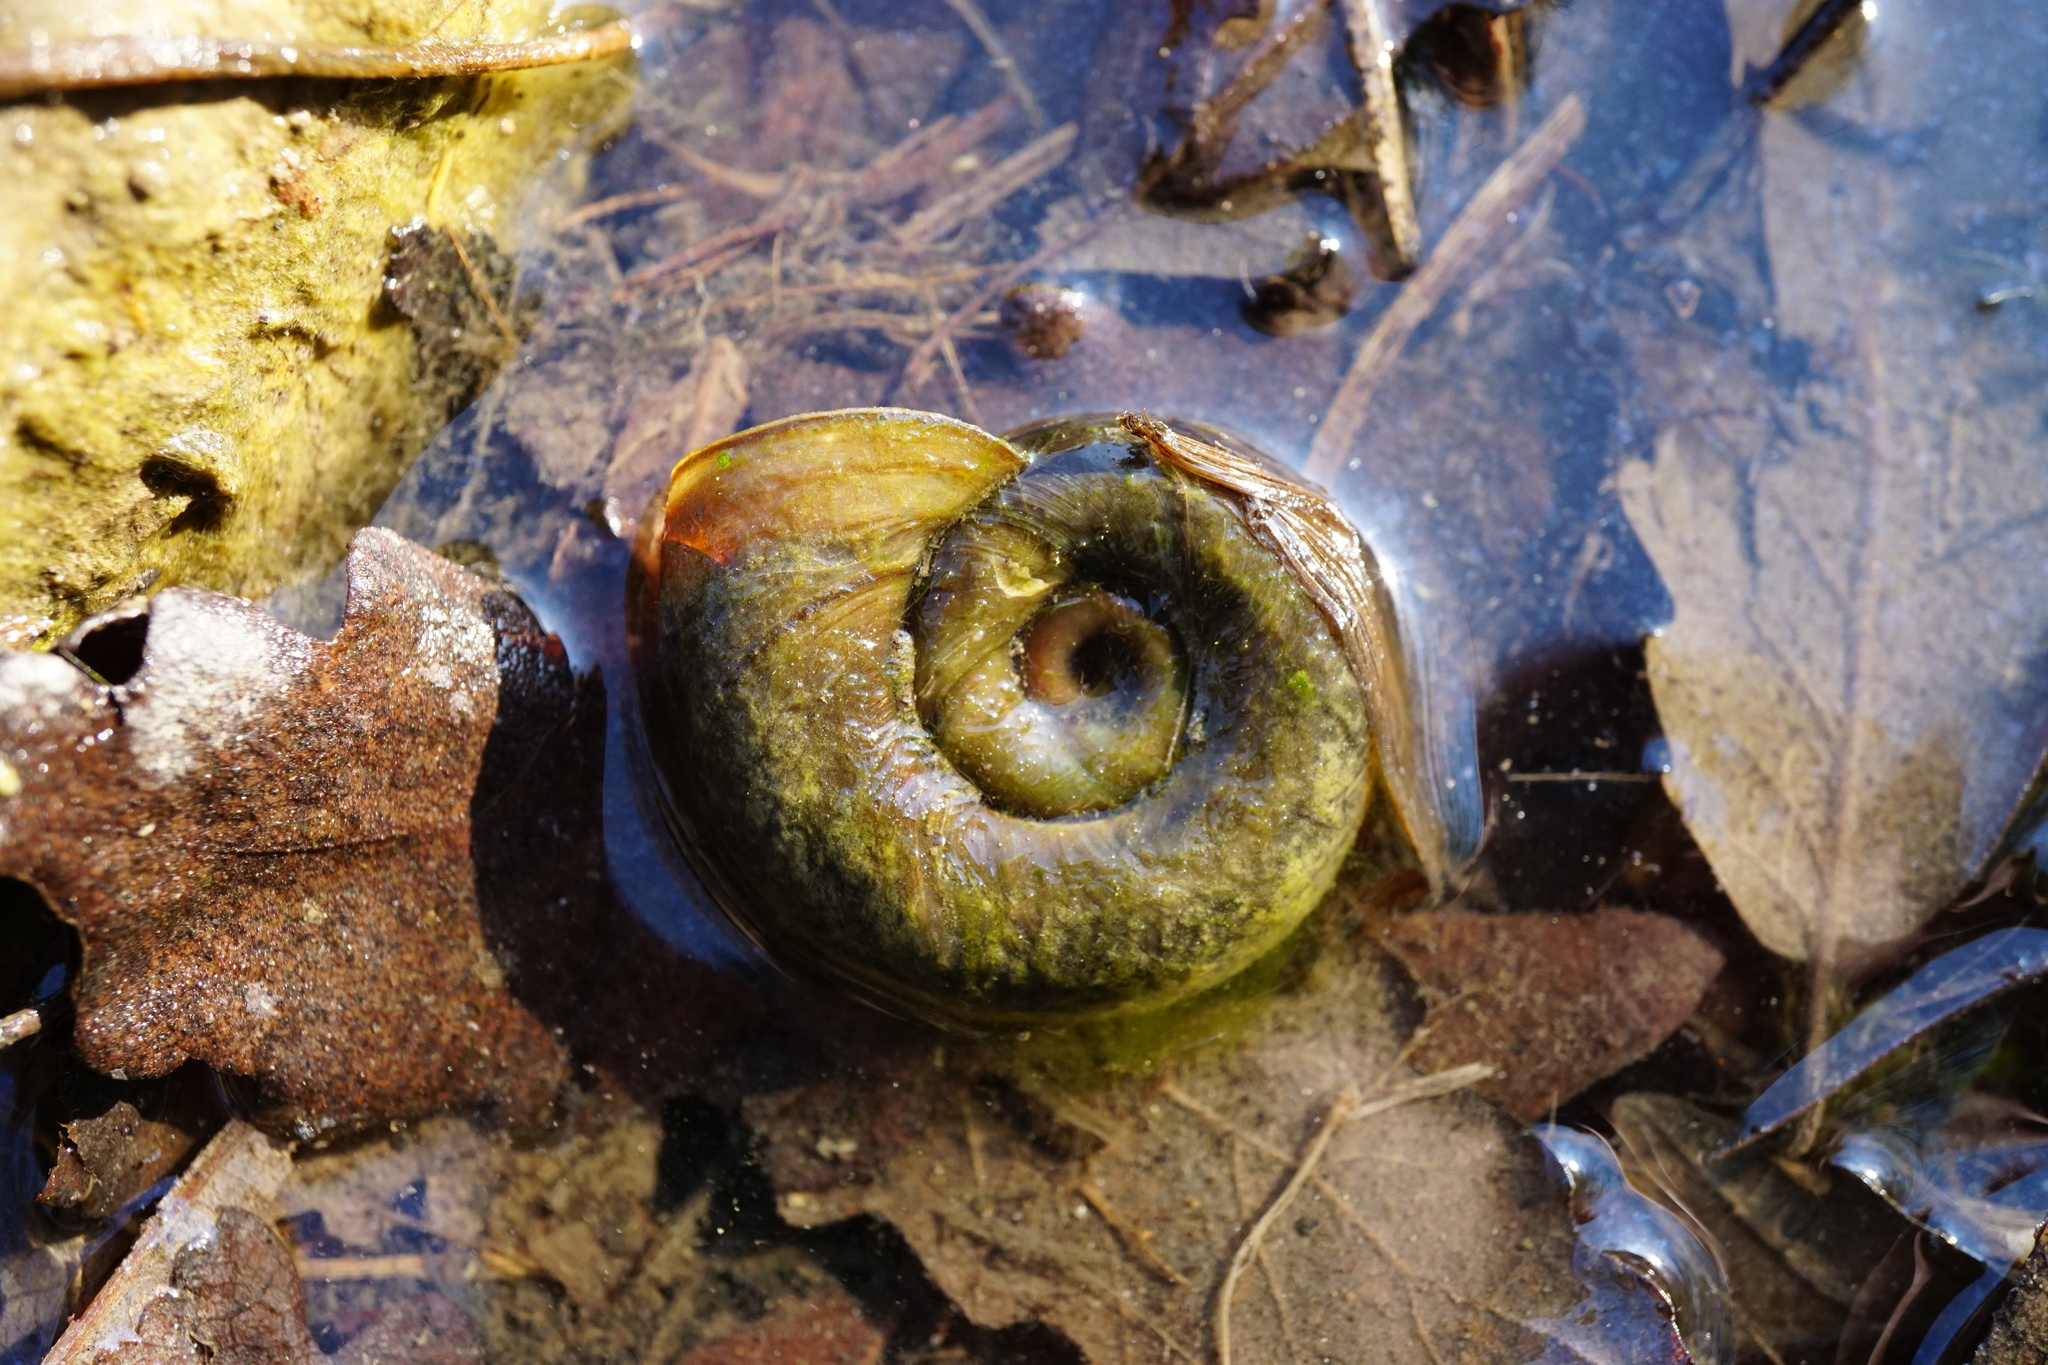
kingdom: Animalia
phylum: Mollusca
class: Gastropoda
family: Planorbidae
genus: Planorbarius
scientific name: Planorbarius corneus
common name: Great ramshorn
